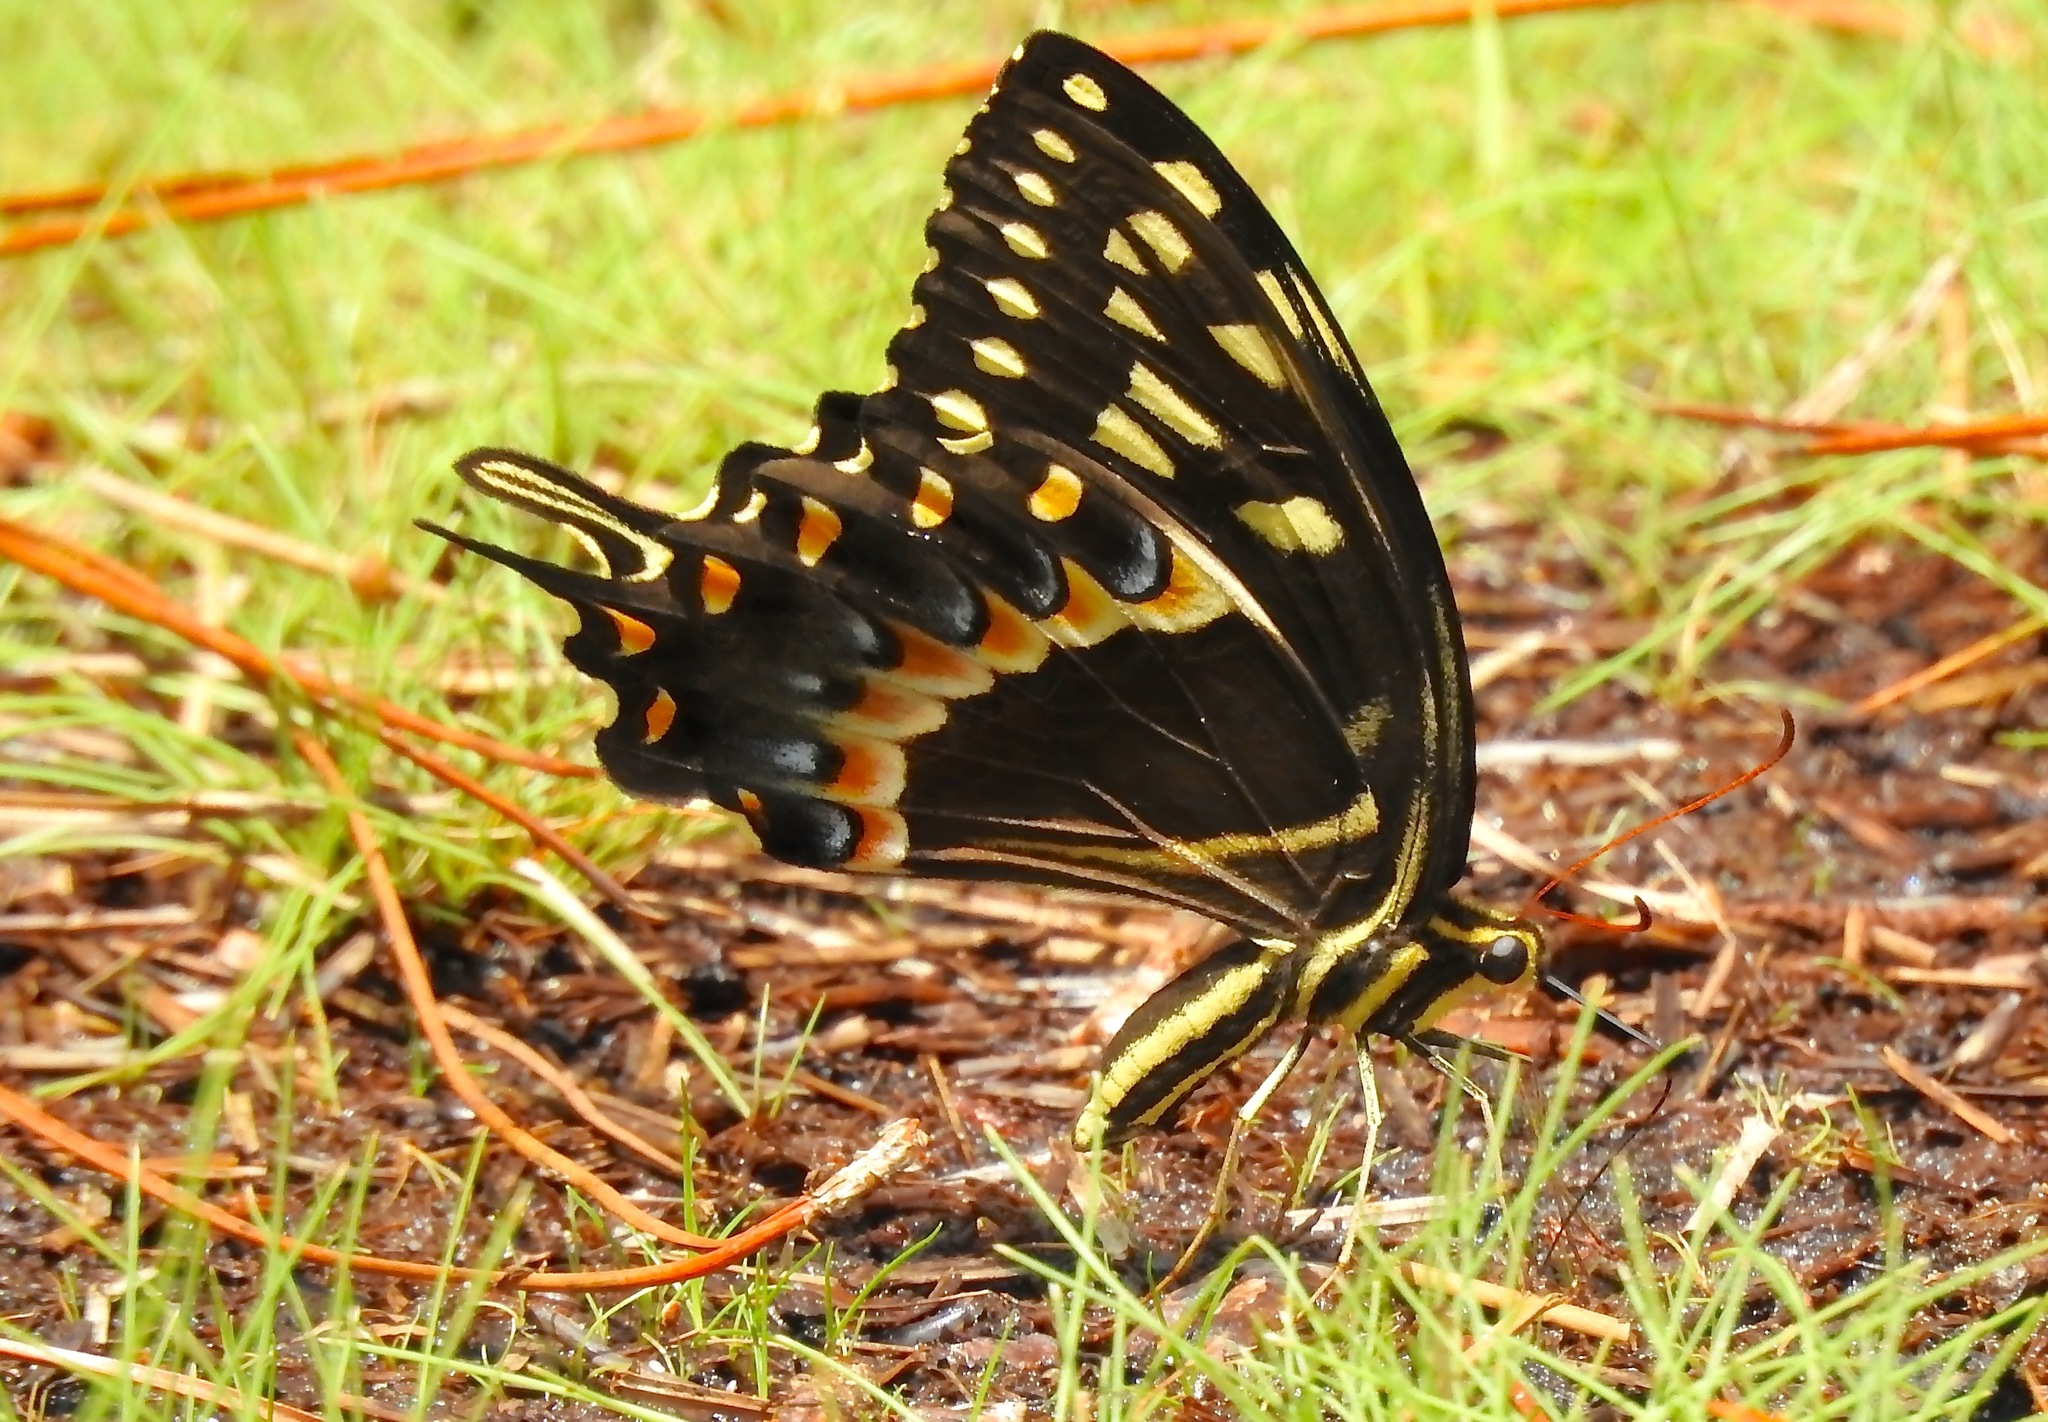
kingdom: Animalia
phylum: Arthropoda
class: Insecta
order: Lepidoptera
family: Papilionidae
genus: Papilio
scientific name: Papilio palamedes
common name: Palamedes swallowtail
